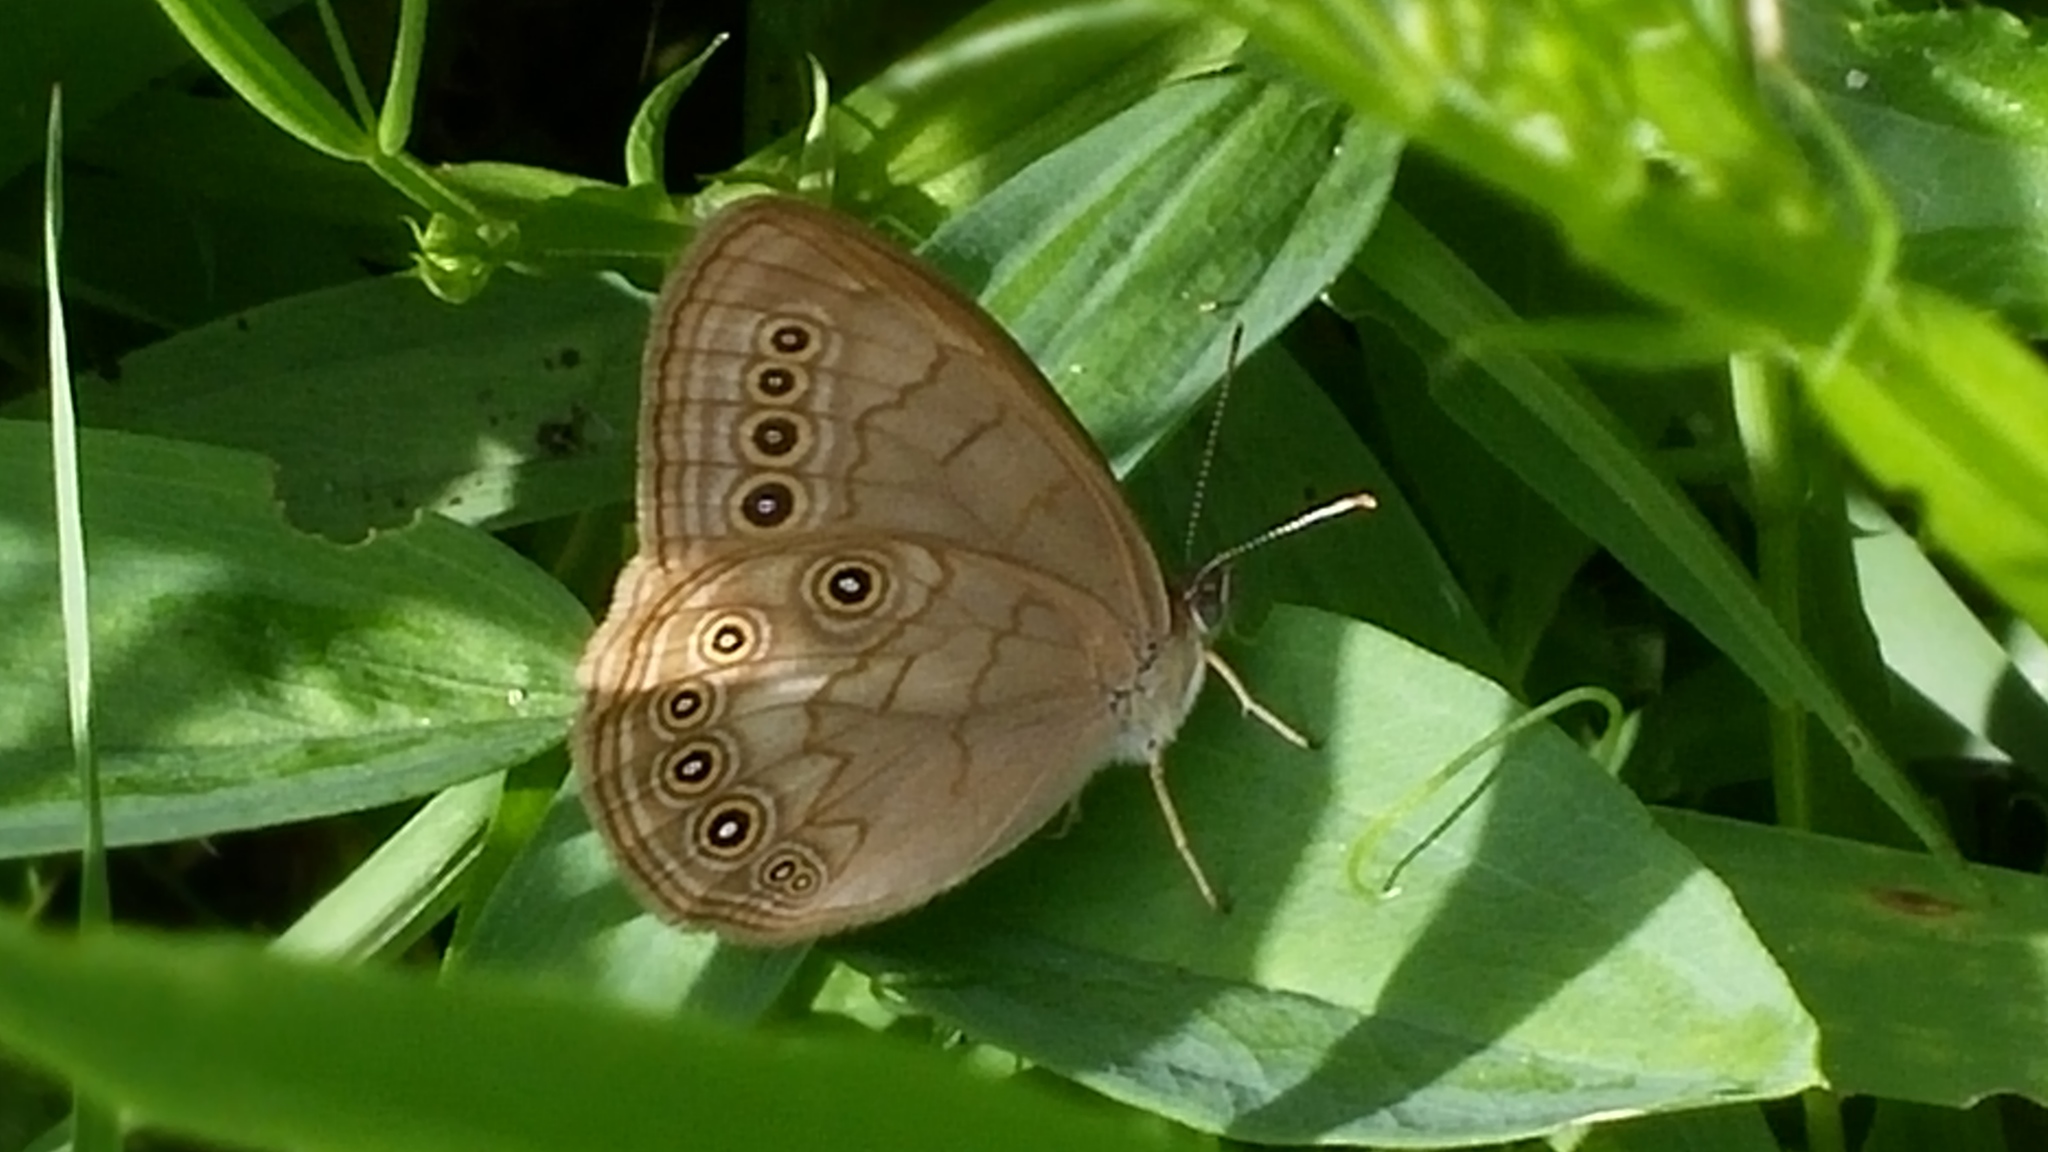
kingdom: Animalia
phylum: Arthropoda
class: Insecta
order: Lepidoptera
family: Nymphalidae
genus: Lethe
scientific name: Lethe eurydice
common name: Eyed brown
